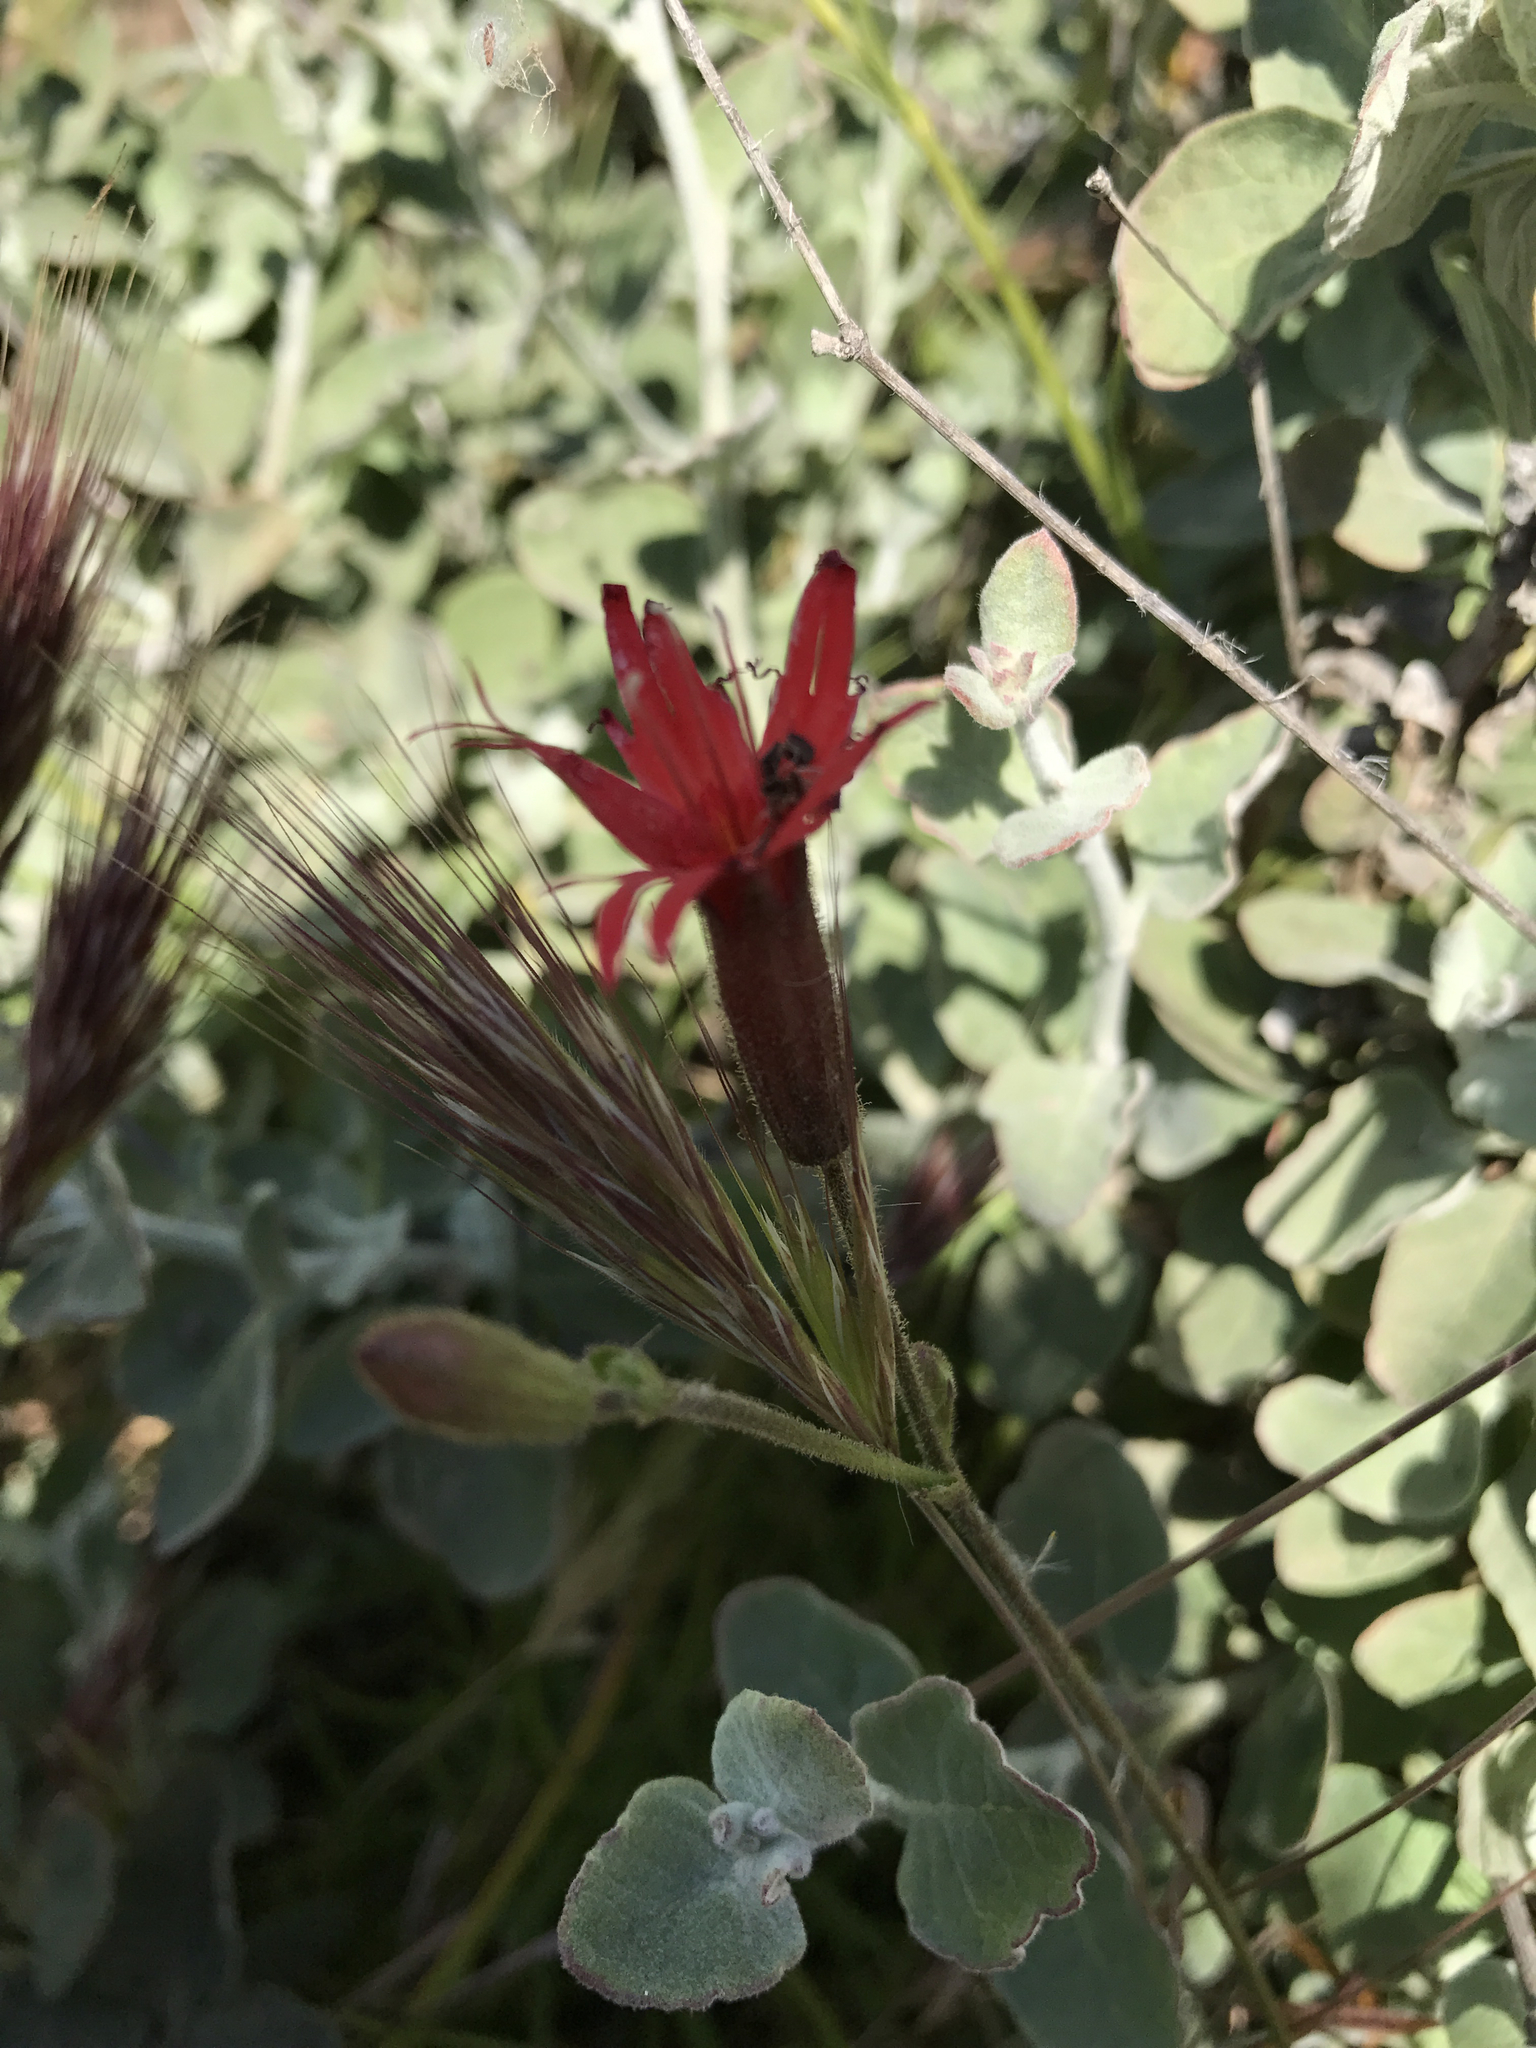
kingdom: Plantae
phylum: Tracheophyta
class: Magnoliopsida
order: Caryophyllales
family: Caryophyllaceae
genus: Silene
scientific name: Silene laciniata
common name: Indian-pink
